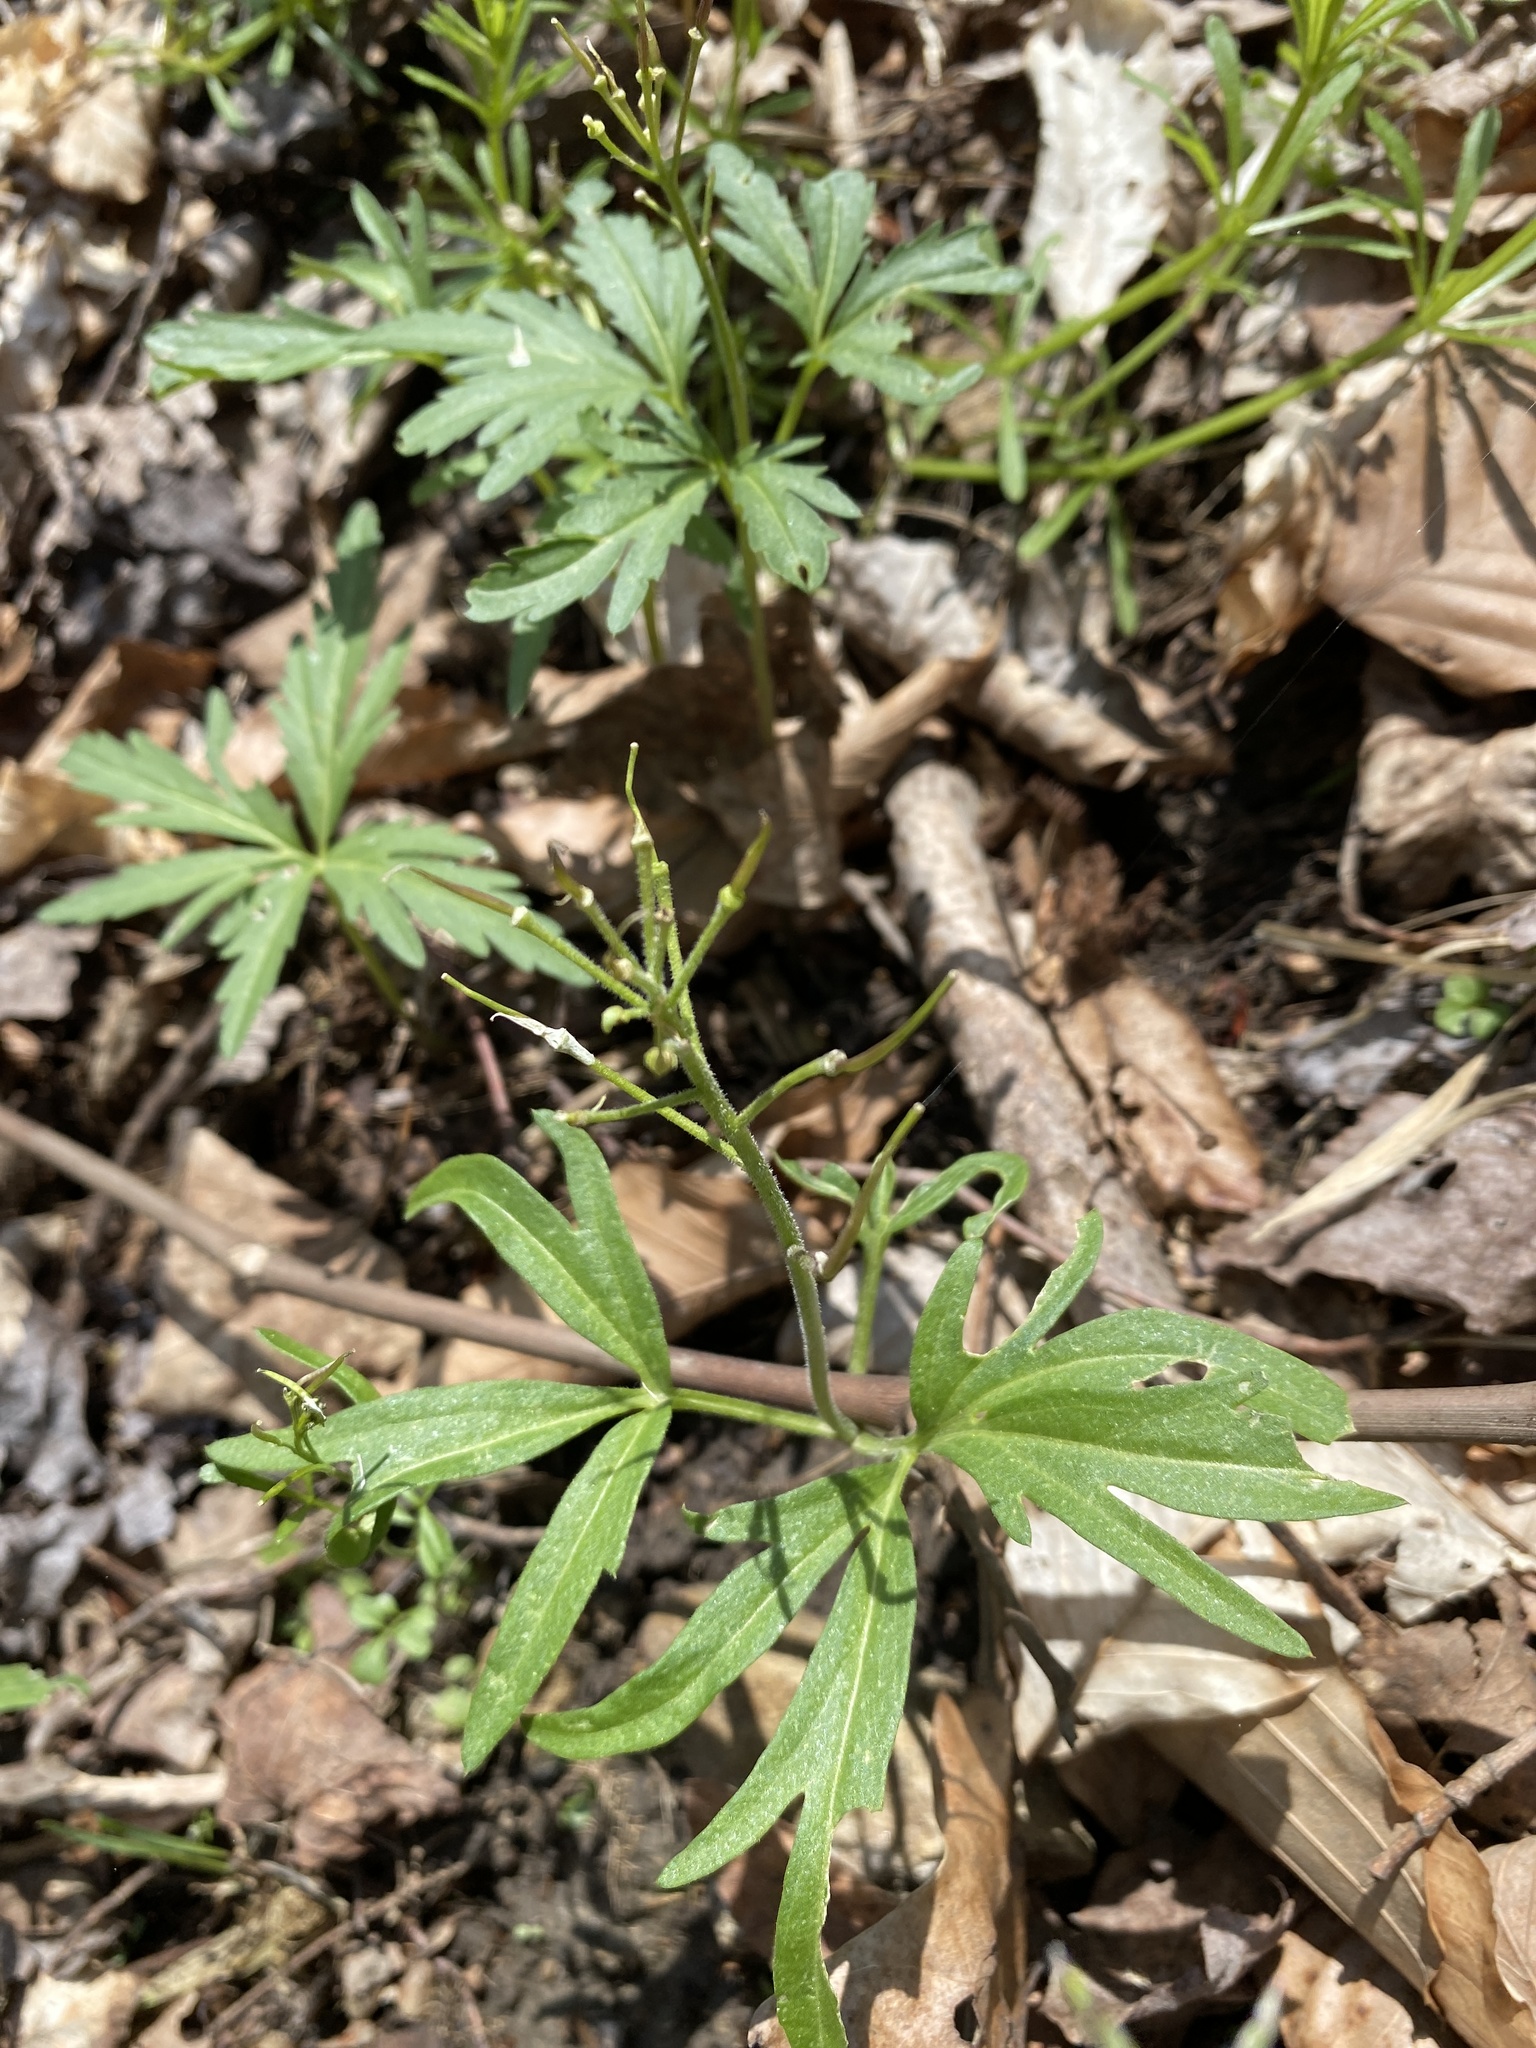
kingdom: Plantae
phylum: Tracheophyta
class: Magnoliopsida
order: Brassicales
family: Brassicaceae
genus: Cardamine
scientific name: Cardamine concatenata
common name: Cut-leaf toothcup
